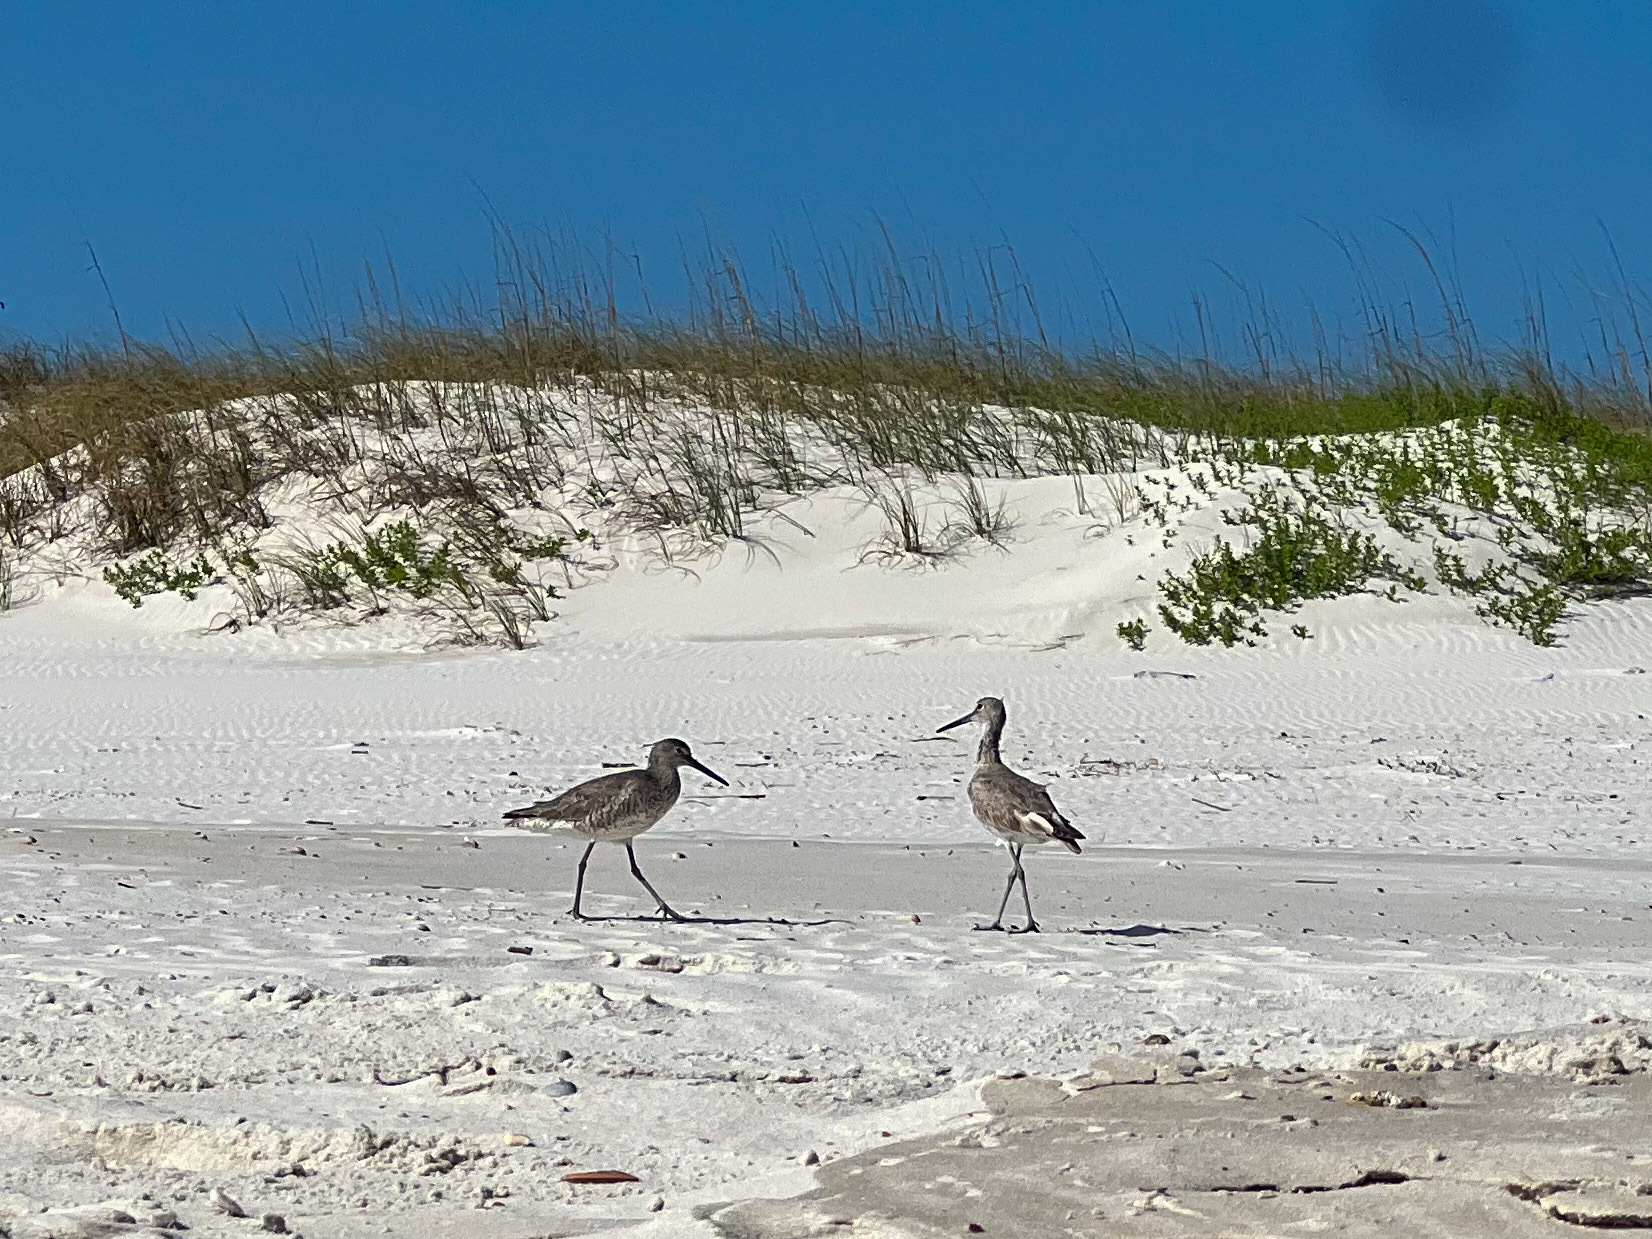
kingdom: Animalia
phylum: Chordata
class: Aves
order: Charadriiformes
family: Scolopacidae
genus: Tringa
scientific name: Tringa semipalmata
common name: Willet
